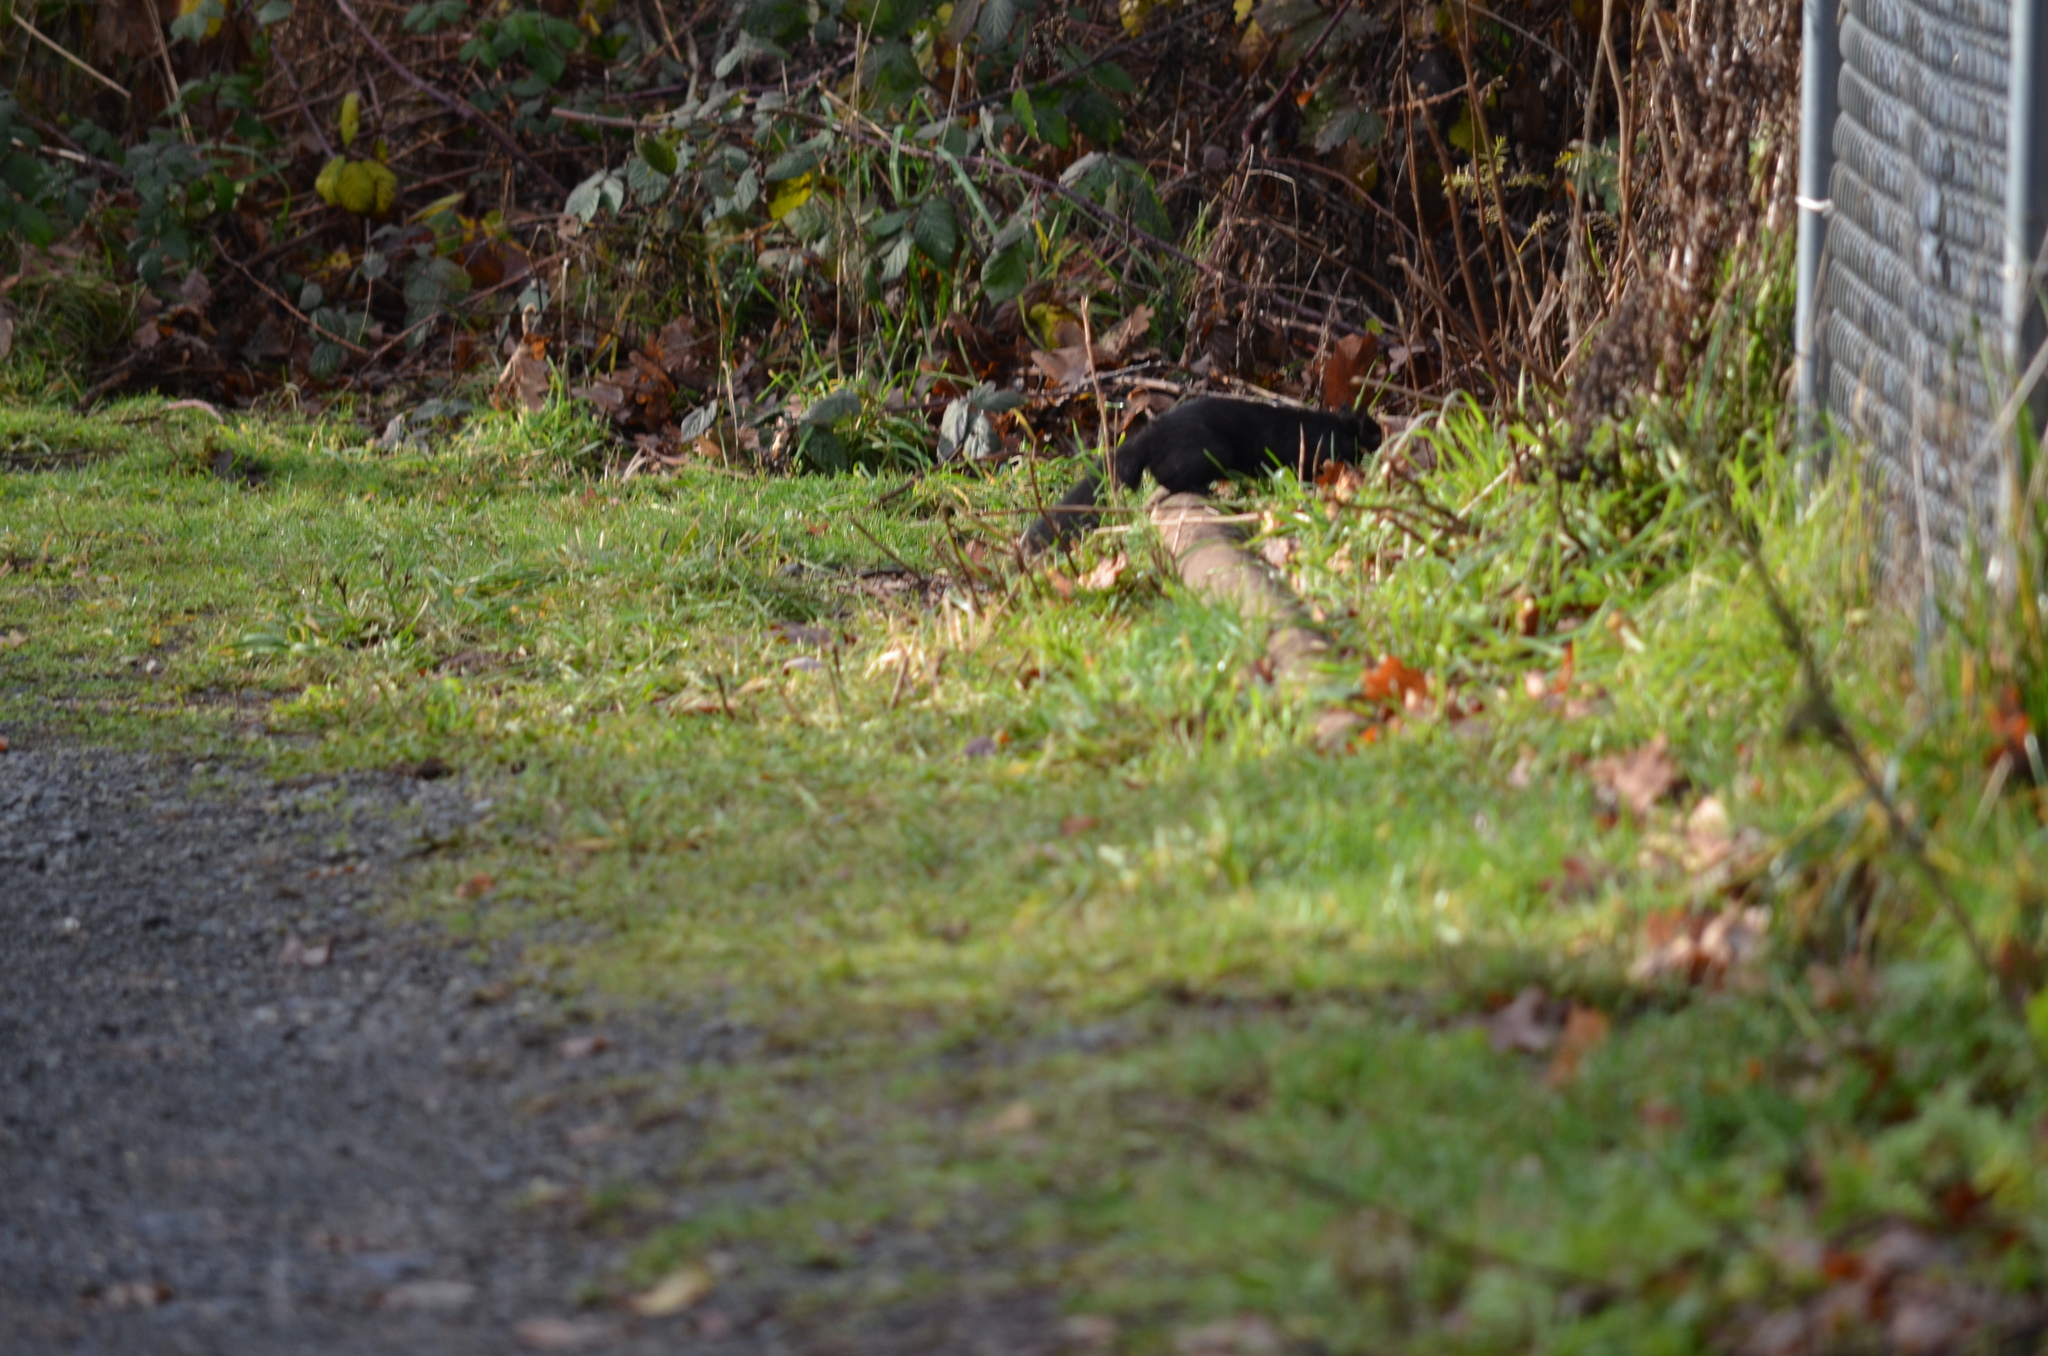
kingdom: Animalia
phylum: Chordata
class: Mammalia
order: Rodentia
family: Sciuridae
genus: Sciurus
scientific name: Sciurus carolinensis
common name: Eastern gray squirrel
